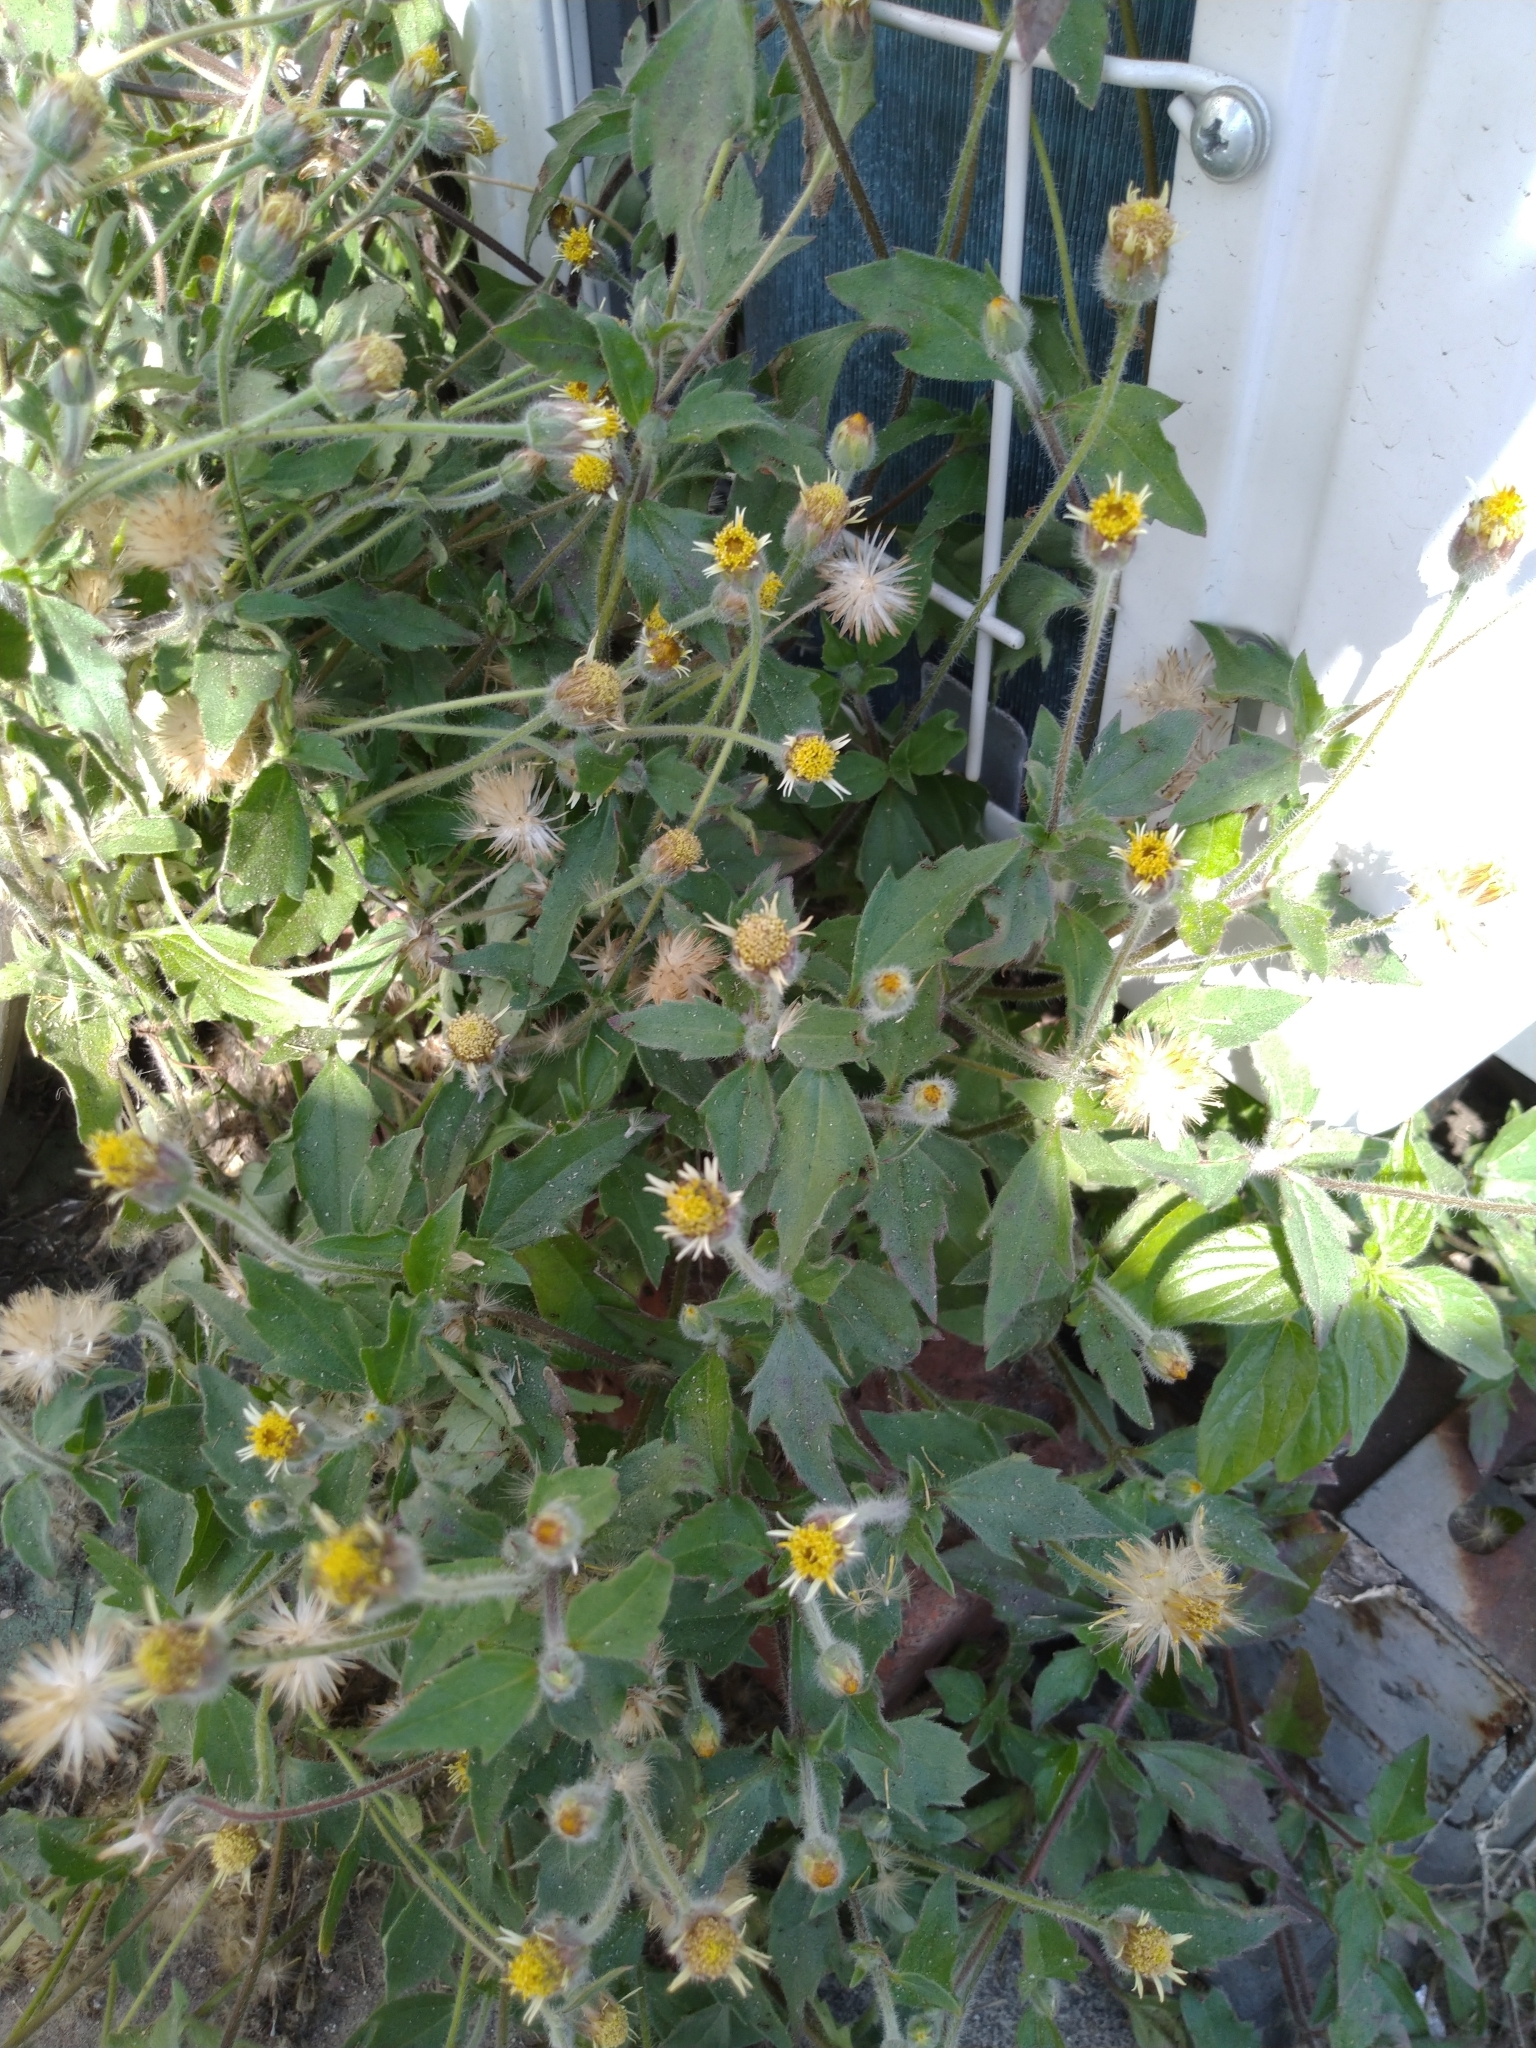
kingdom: Plantae
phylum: Tracheophyta
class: Magnoliopsida
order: Asterales
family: Asteraceae
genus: Tridax
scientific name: Tridax procumbens
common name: Coatbuttons
